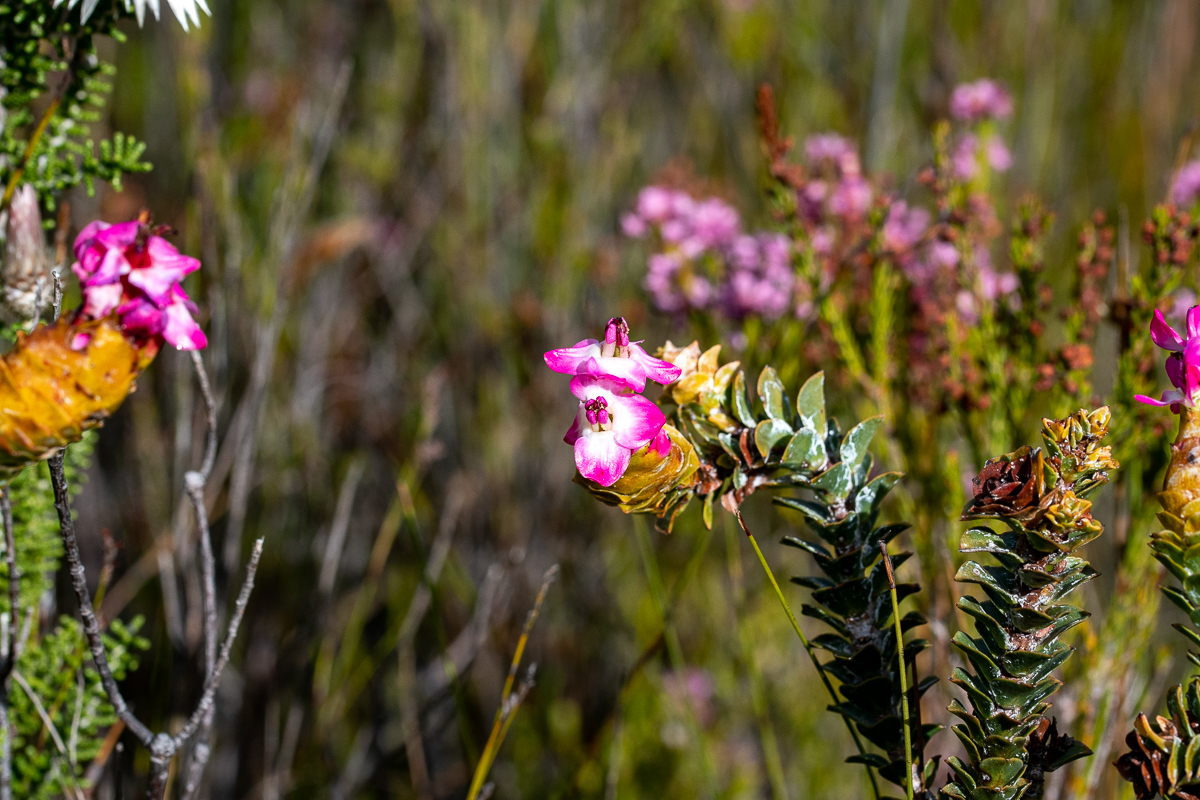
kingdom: Plantae
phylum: Tracheophyta
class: Magnoliopsida
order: Myrtales
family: Penaeaceae
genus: Saltera
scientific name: Saltera sarcocolla
